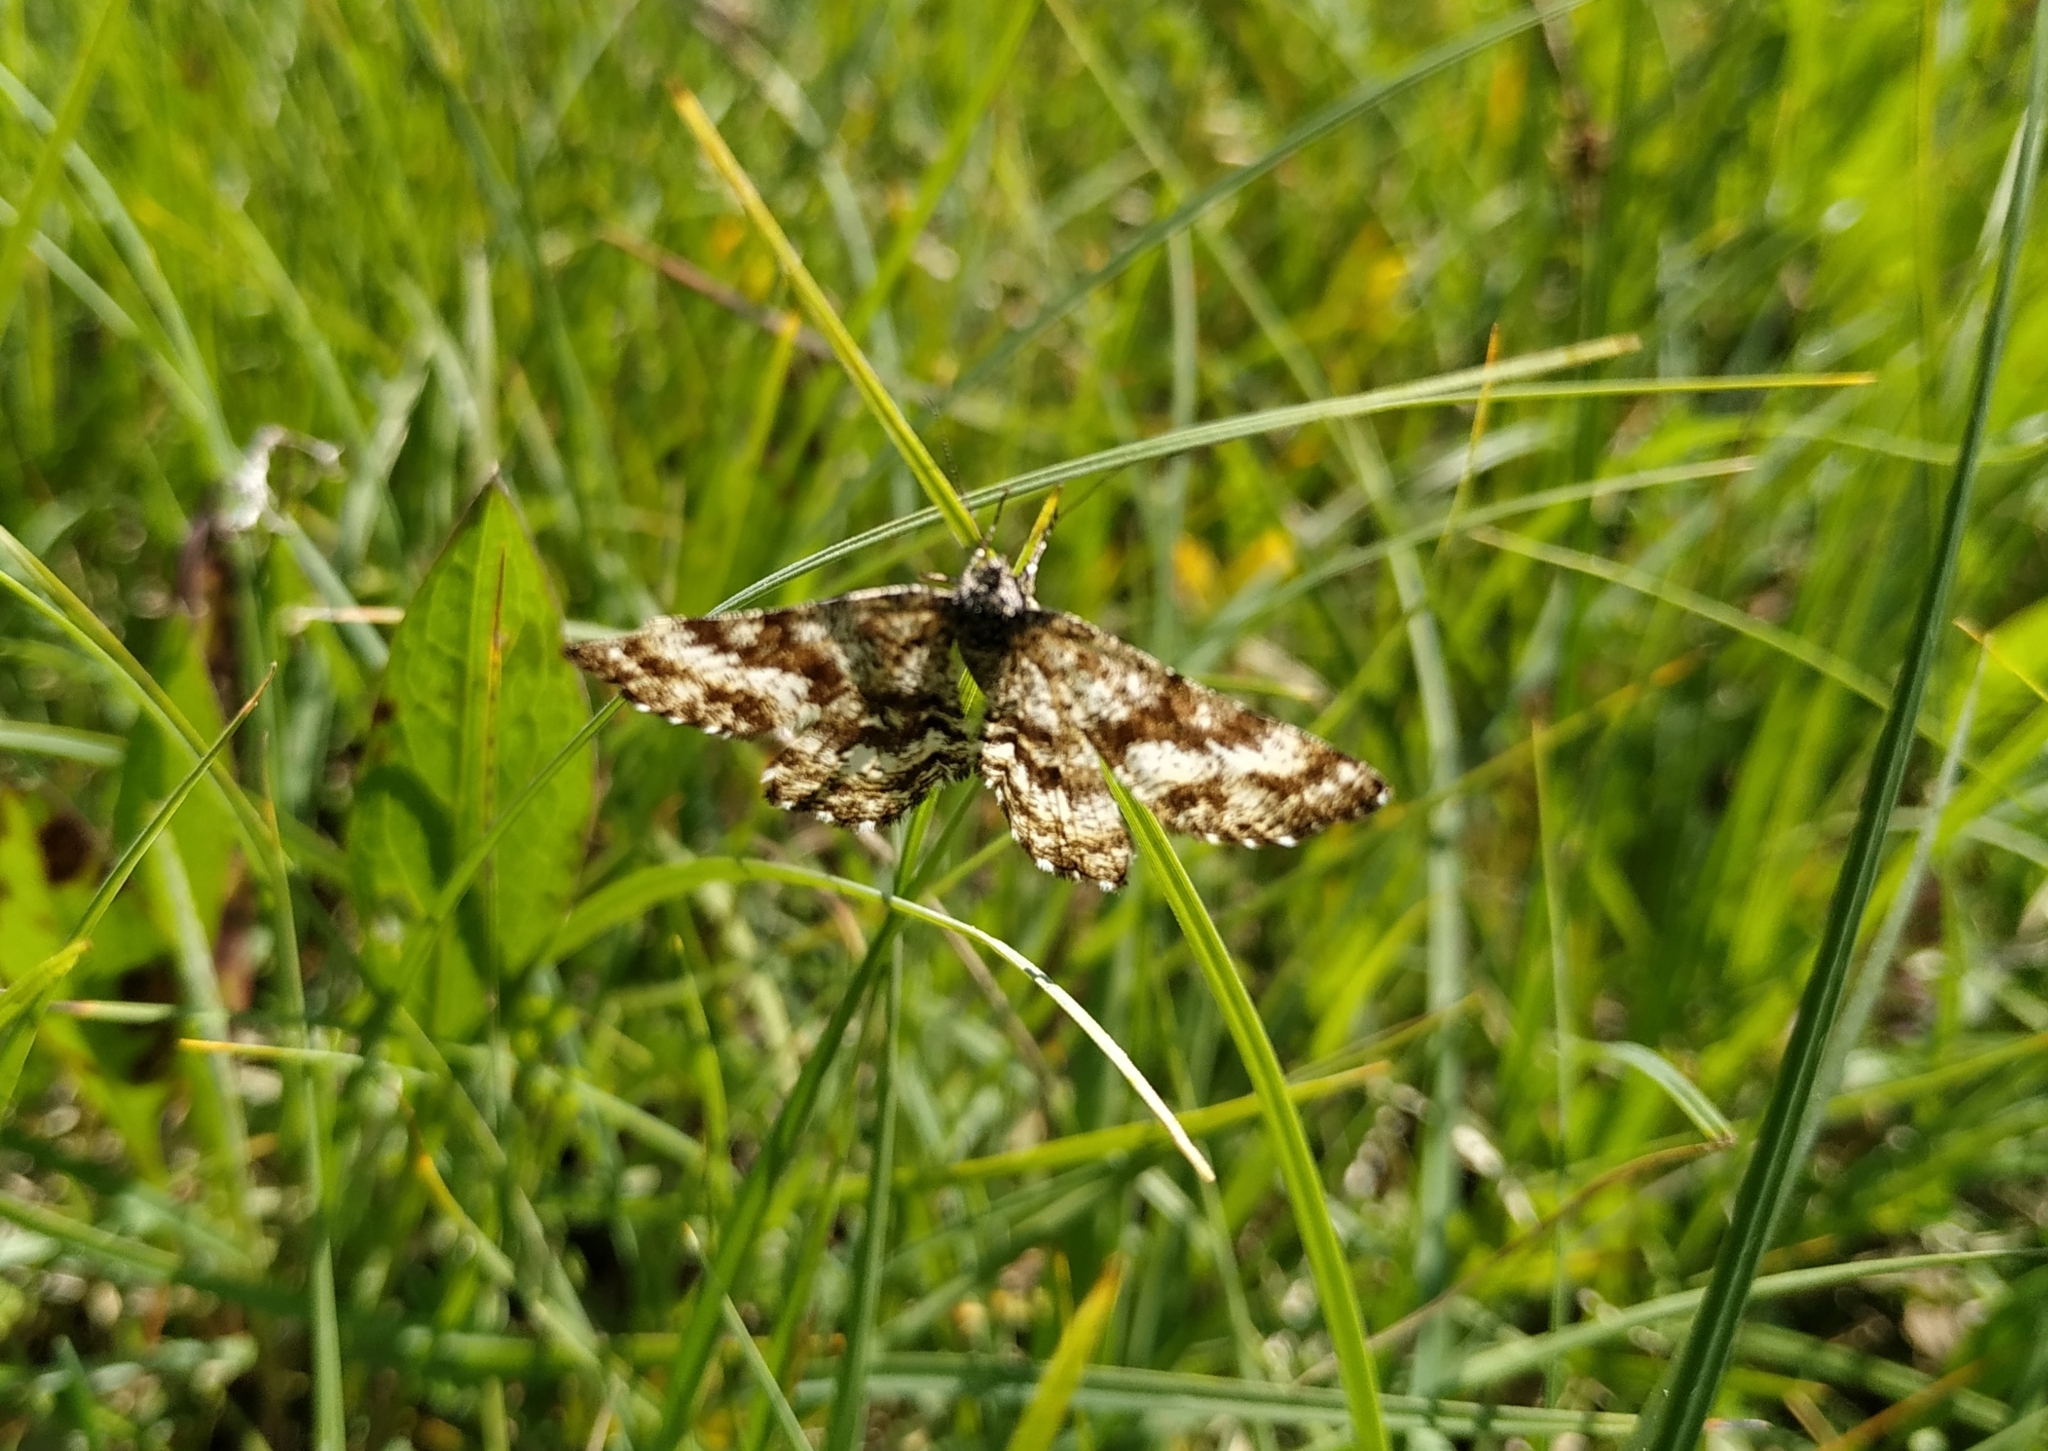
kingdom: Animalia
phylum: Arthropoda
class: Insecta
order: Lepidoptera
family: Geometridae
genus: Ematurga
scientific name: Ematurga atomaria
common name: Common heath
